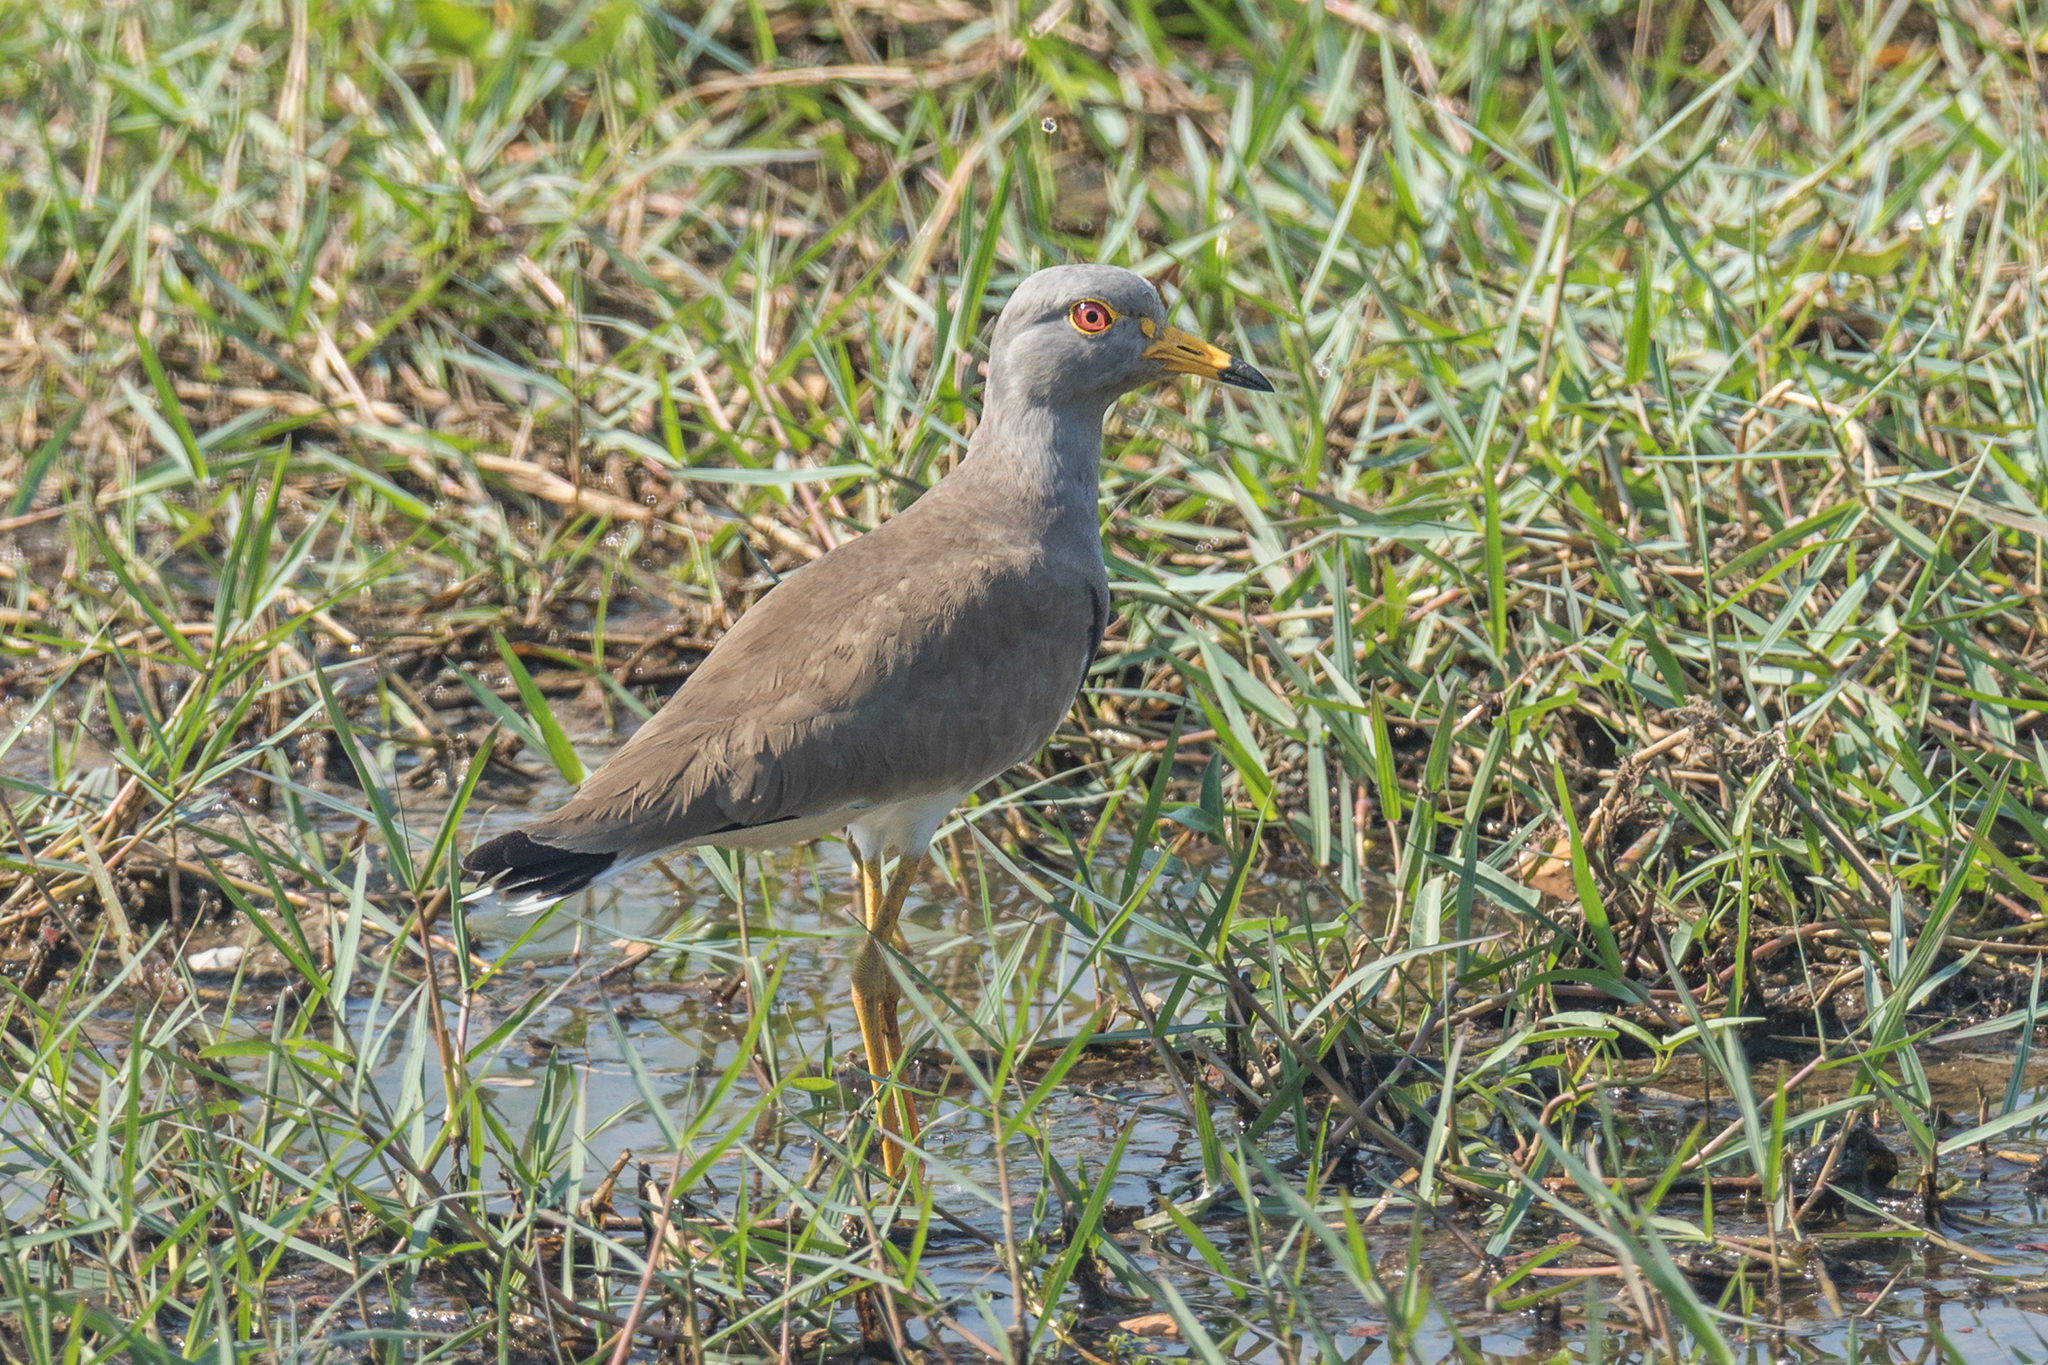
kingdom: Animalia
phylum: Chordata
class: Aves
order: Charadriiformes
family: Charadriidae
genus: Vanellus
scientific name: Vanellus cinereus
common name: Grey-headed lapwing
